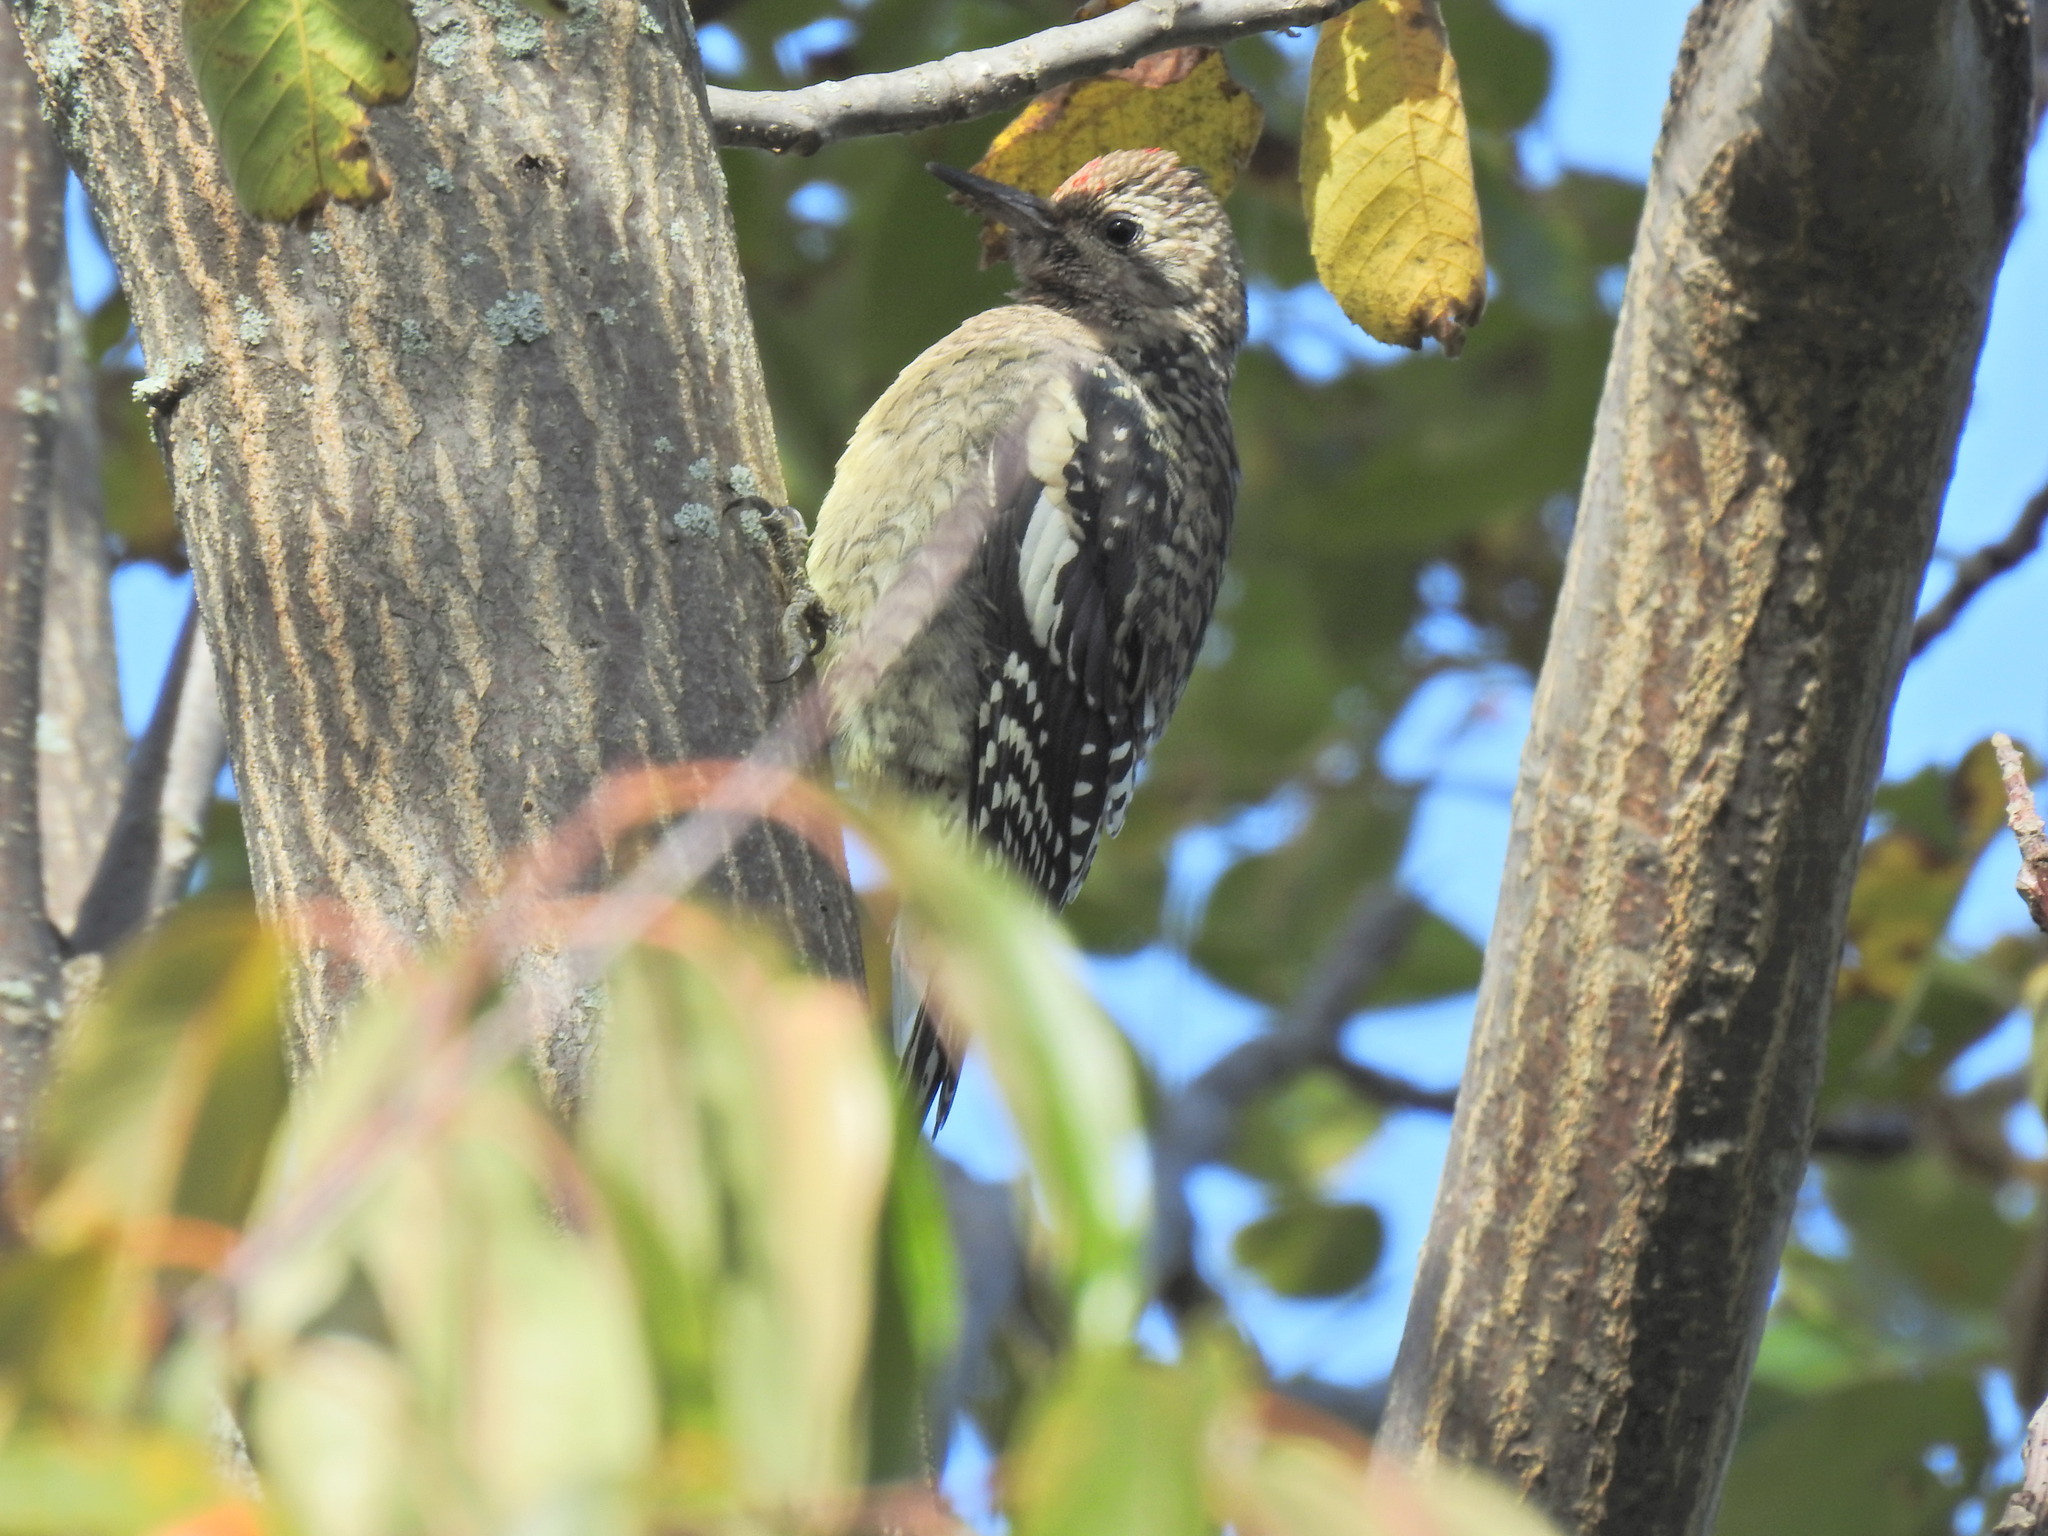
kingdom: Animalia
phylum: Chordata
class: Aves
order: Piciformes
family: Picidae
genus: Sphyrapicus
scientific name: Sphyrapicus varius
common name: Yellow-bellied sapsucker
